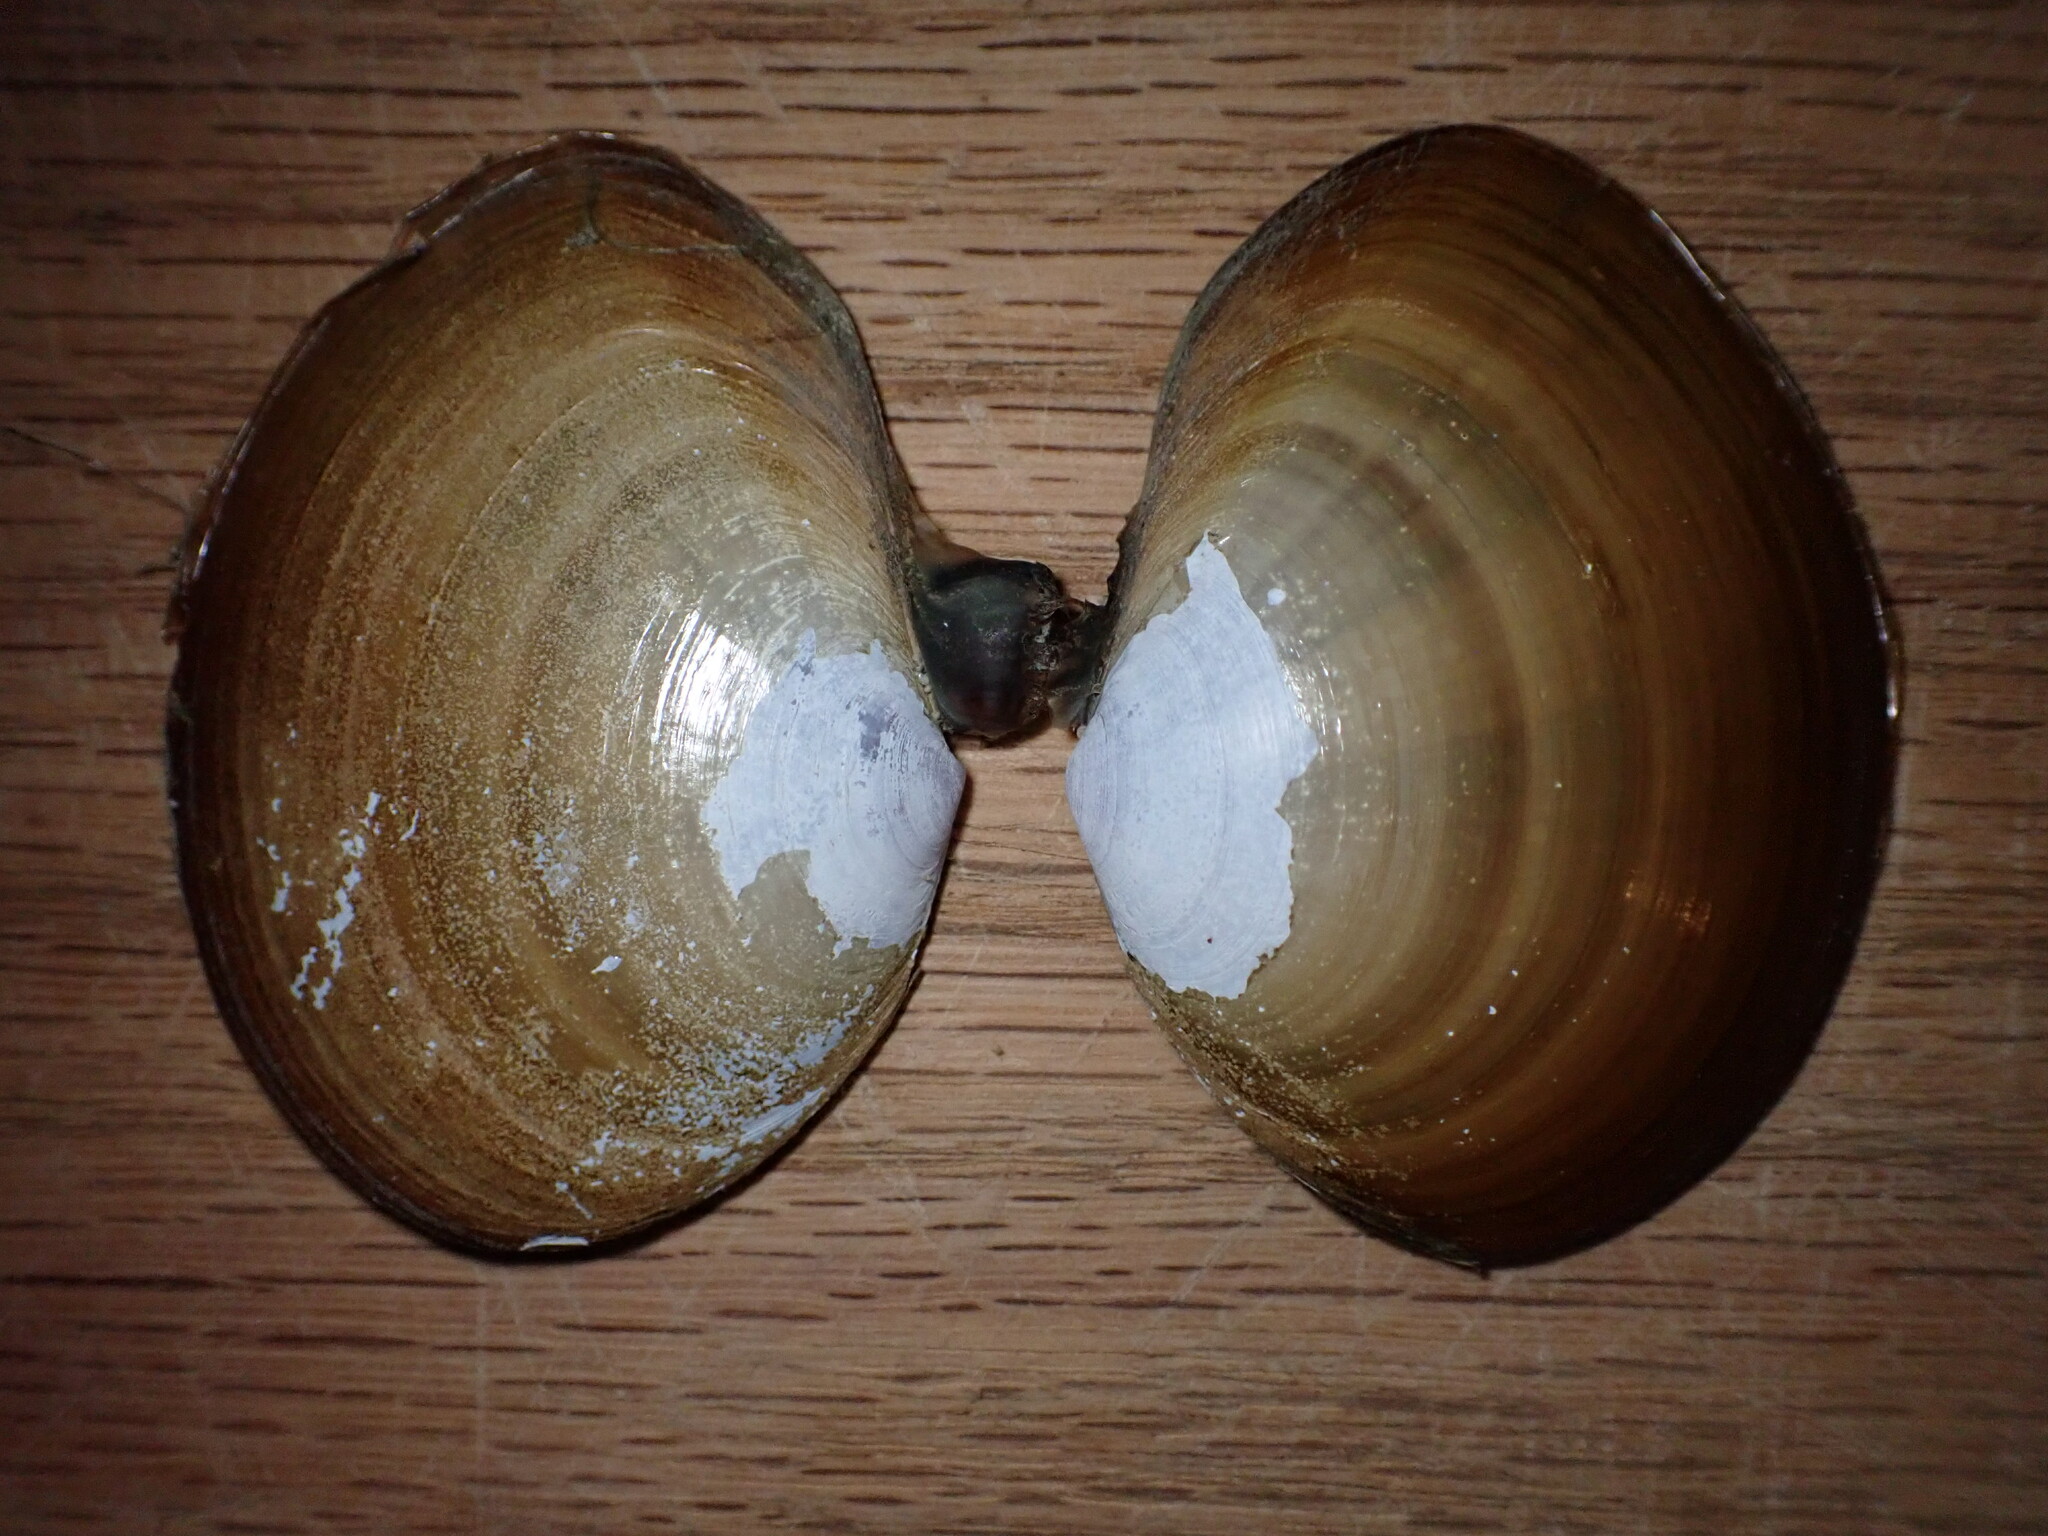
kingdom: Animalia
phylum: Mollusca
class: Bivalvia
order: Cardiida
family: Psammobiidae
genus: Nuttallia
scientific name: Nuttallia nuttallii
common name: California mahogany-clam
